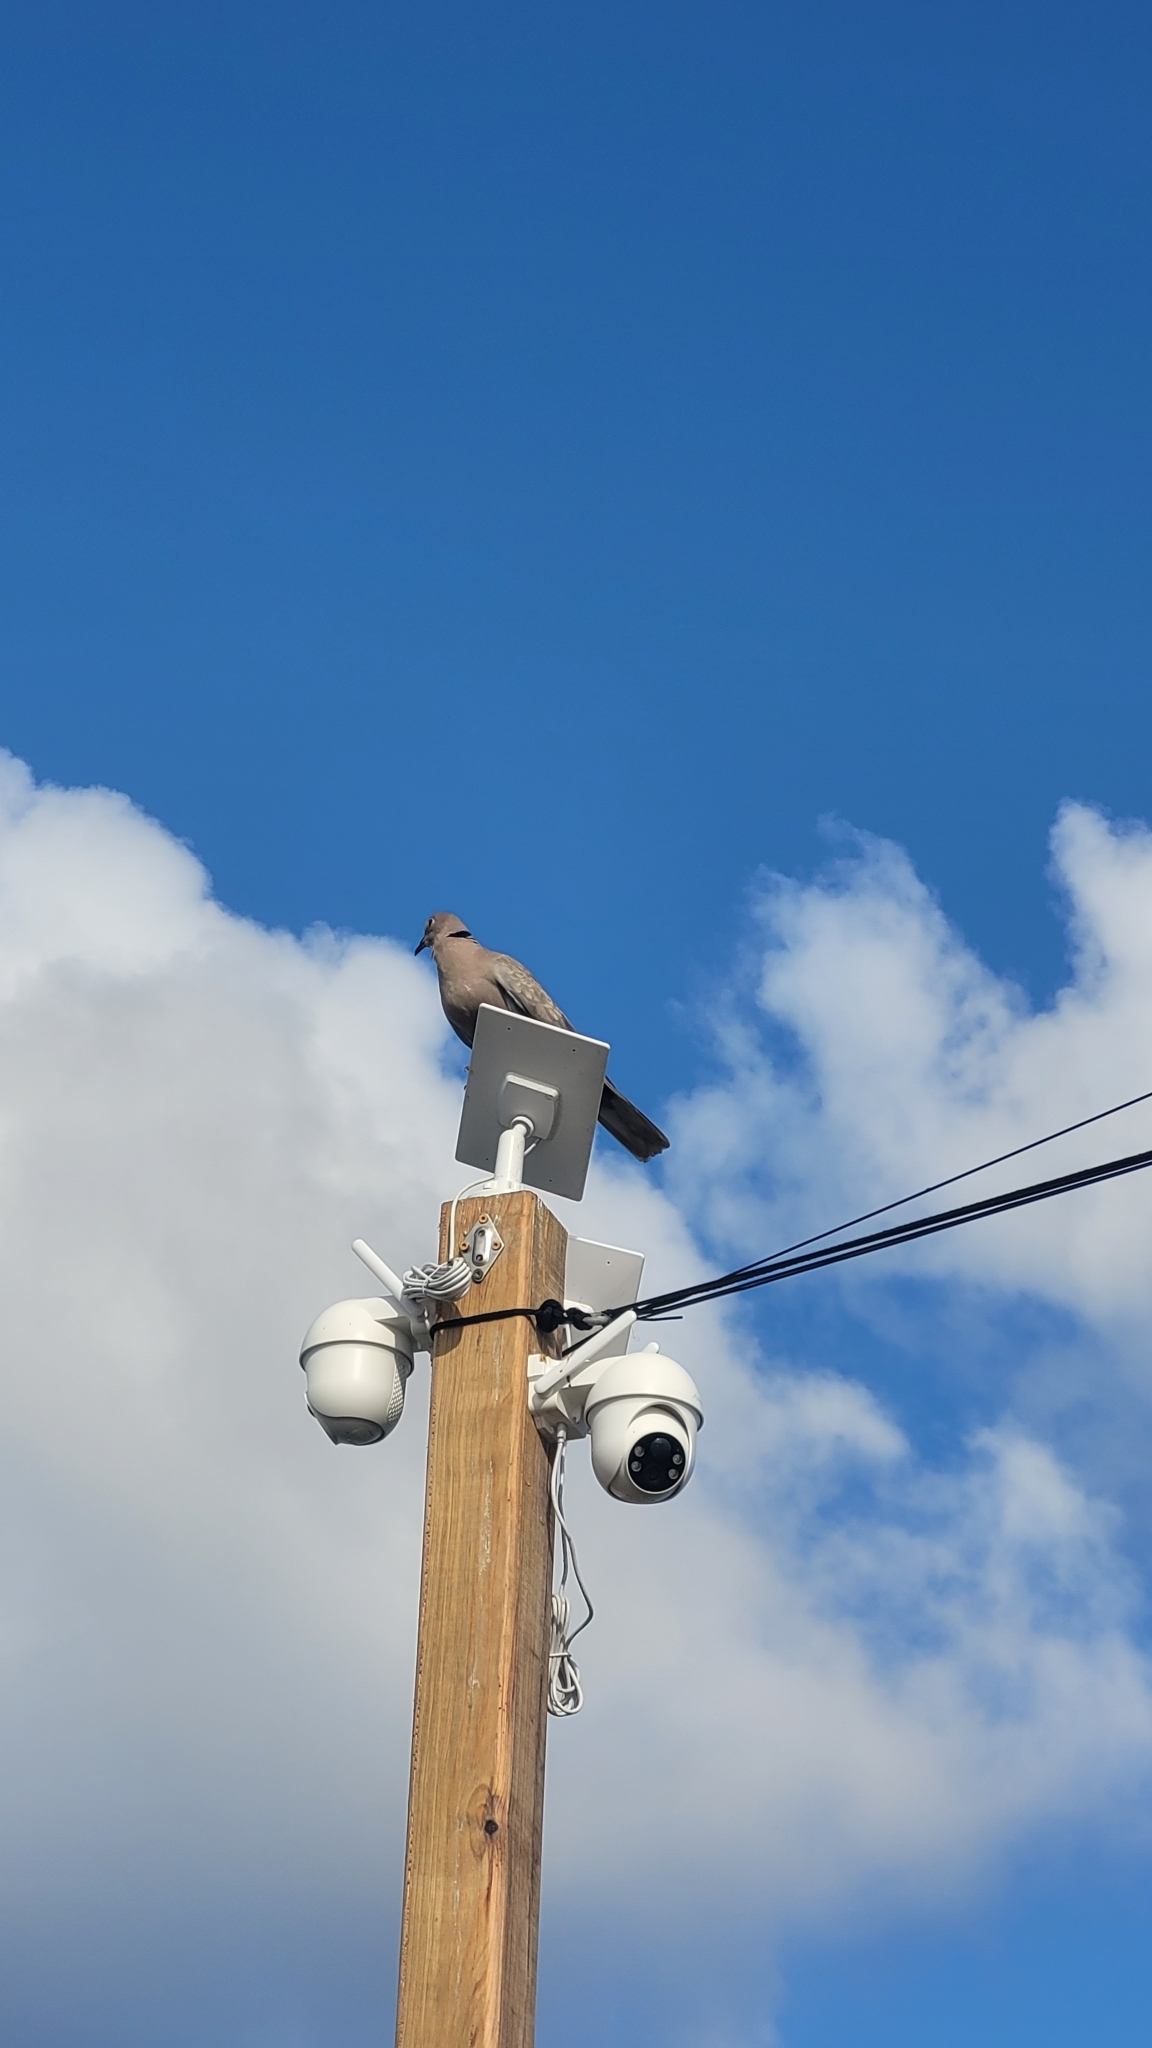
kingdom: Animalia
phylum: Chordata
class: Aves
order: Columbiformes
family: Columbidae
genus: Streptopelia
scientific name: Streptopelia decaocto
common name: Eurasian collared dove
